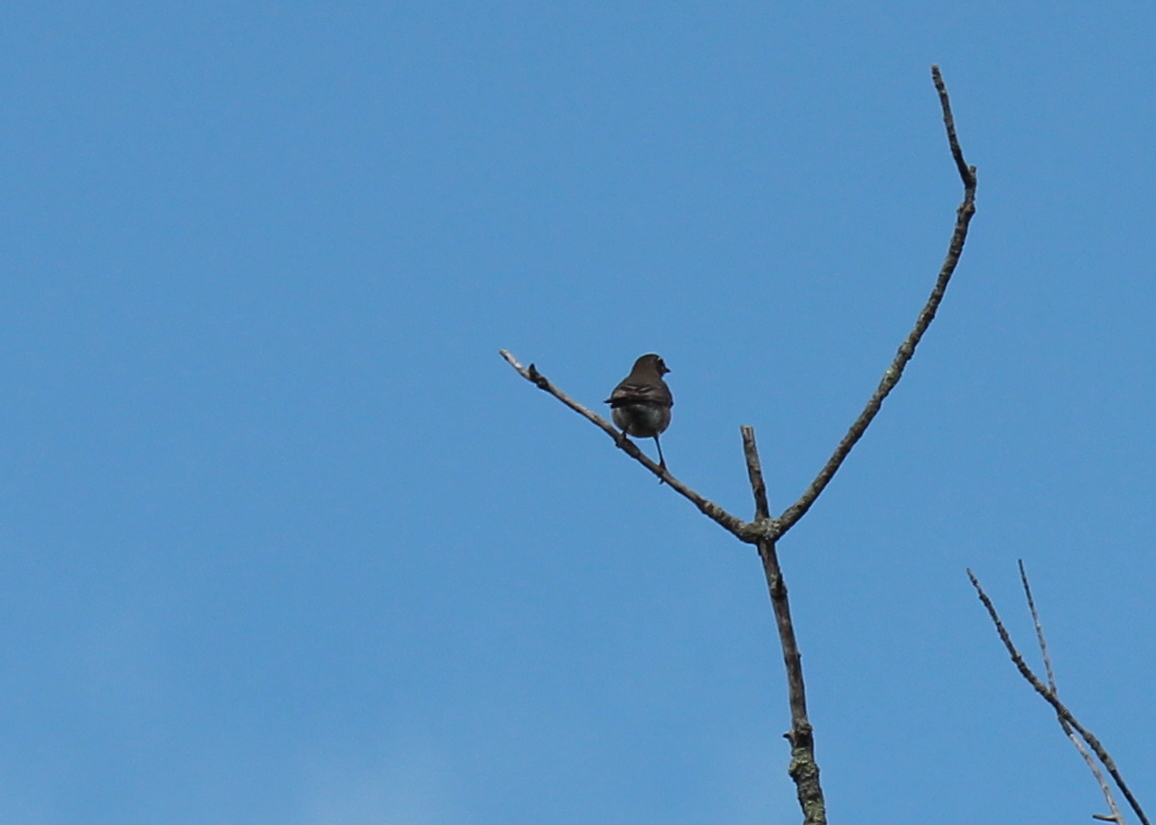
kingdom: Animalia
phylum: Chordata
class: Aves
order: Passeriformes
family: Turdidae
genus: Turdus
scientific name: Turdus migratorius
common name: American robin
